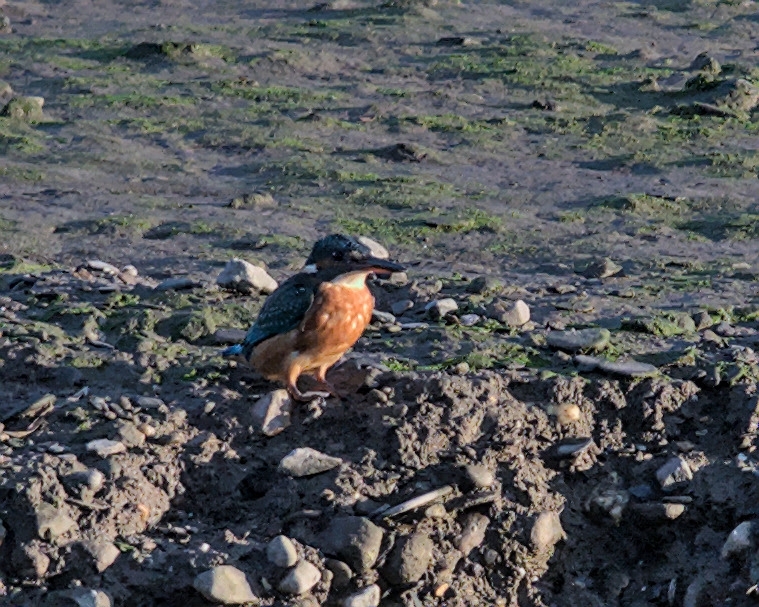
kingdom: Animalia
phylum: Chordata
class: Aves
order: Coraciiformes
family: Alcedinidae
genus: Alcedo
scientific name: Alcedo atthis
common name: Common kingfisher
